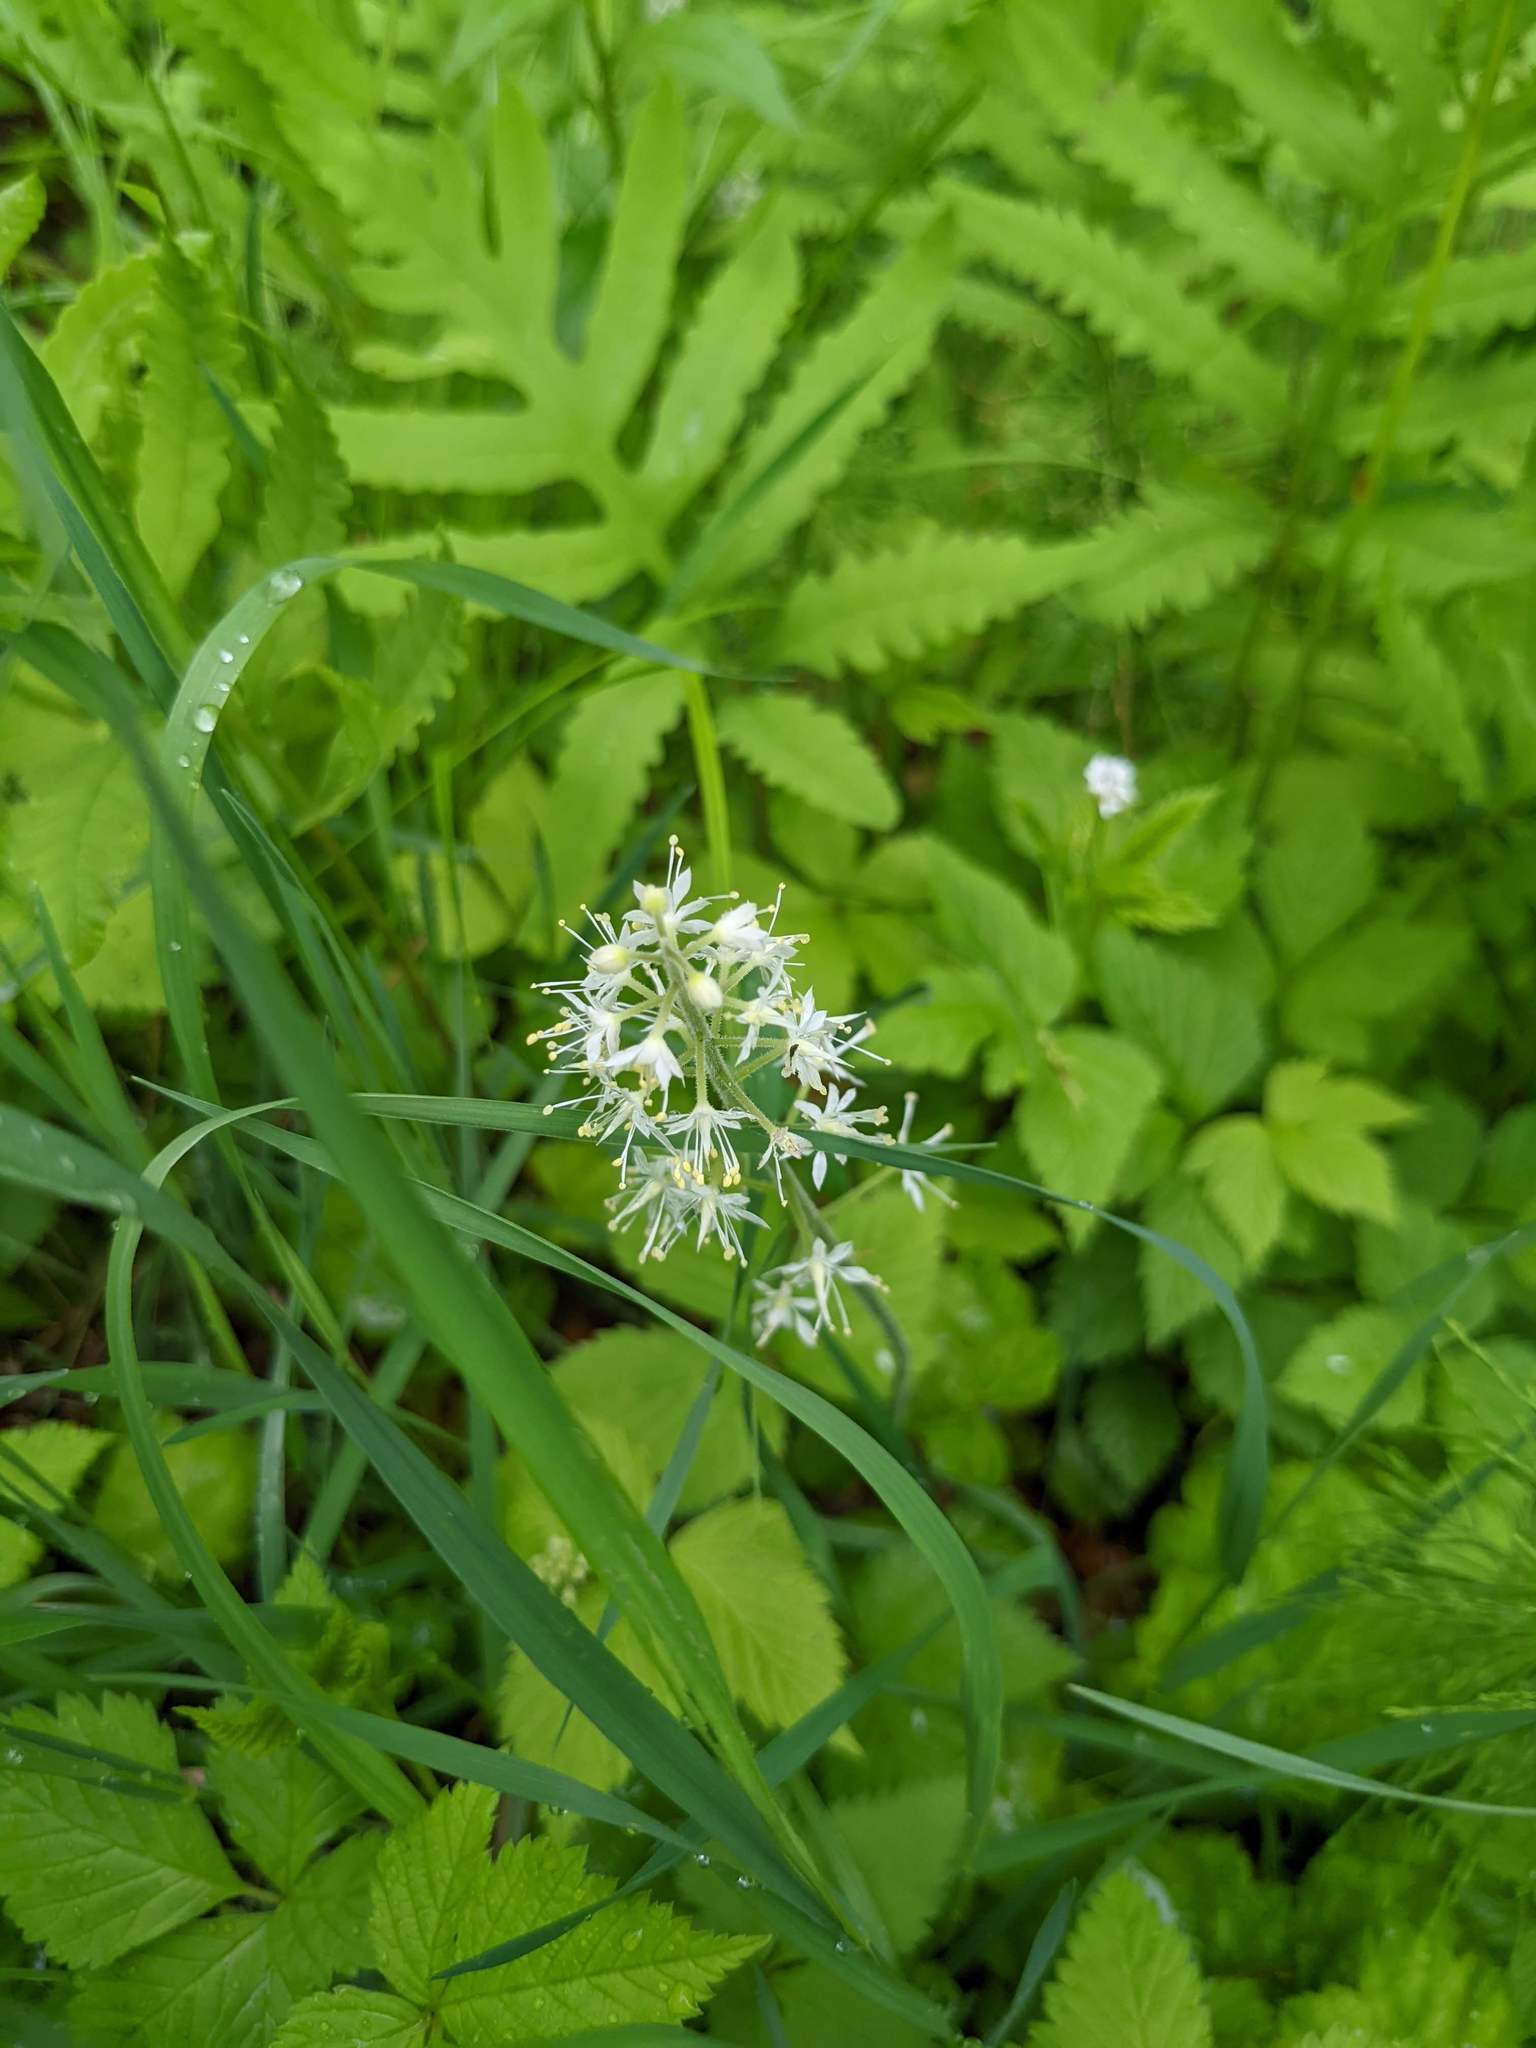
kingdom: Plantae
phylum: Tracheophyta
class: Magnoliopsida
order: Saxifragales
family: Saxifragaceae
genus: Tiarella
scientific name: Tiarella stolonifera
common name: Stoloniferous foamflower
